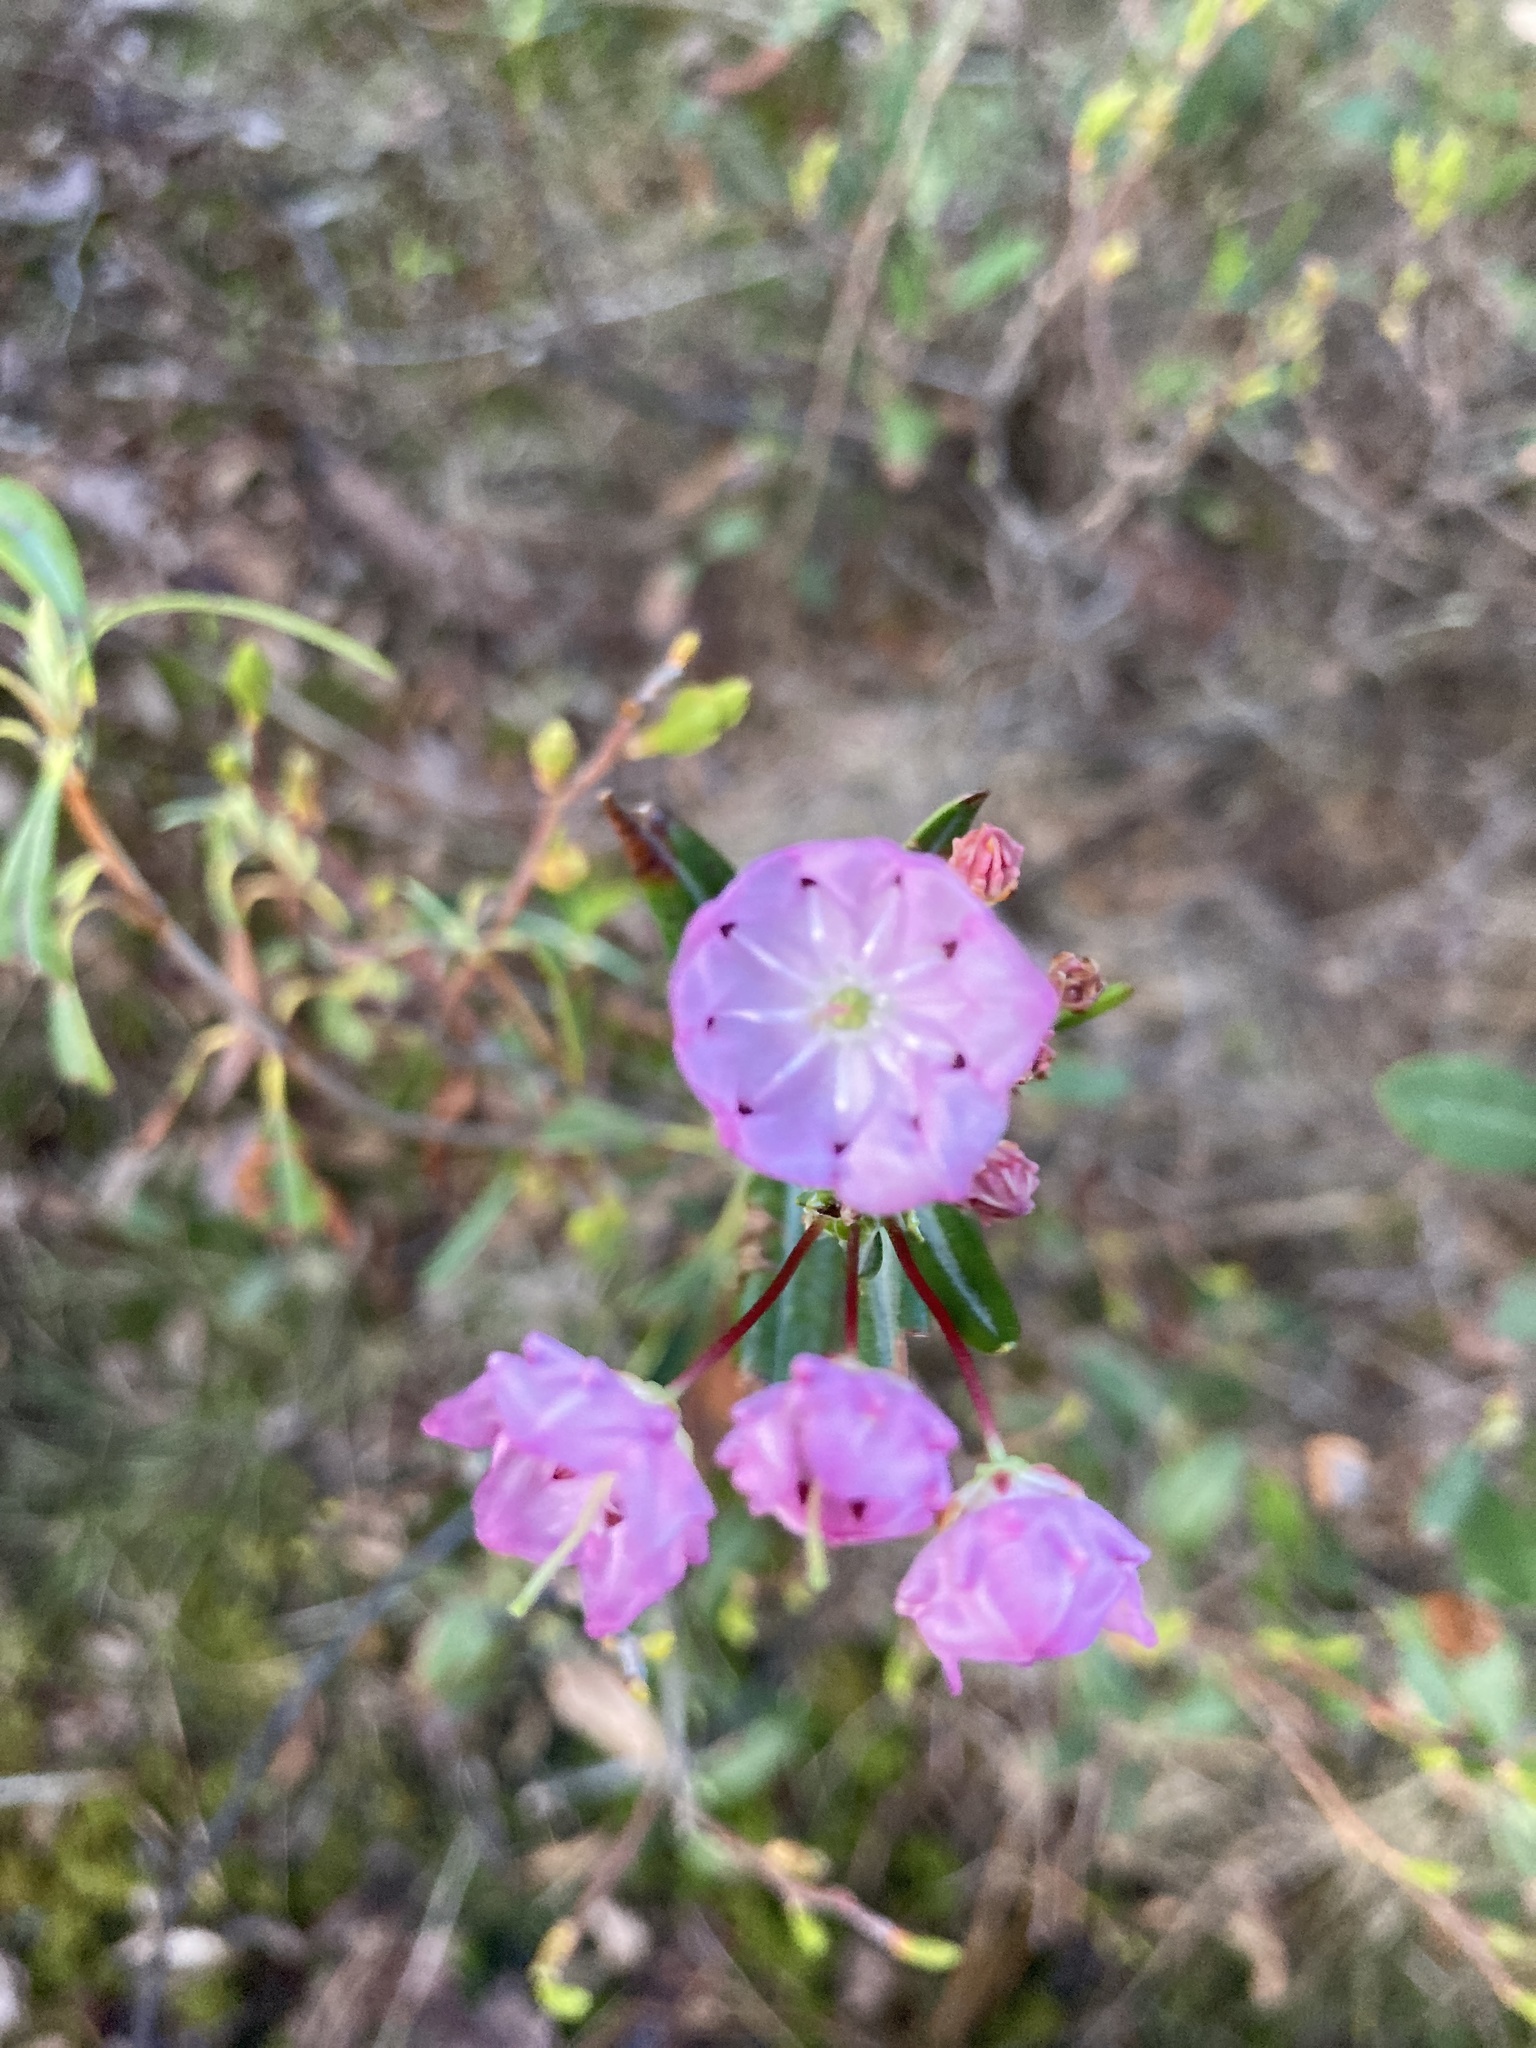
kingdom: Plantae
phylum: Tracheophyta
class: Magnoliopsida
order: Ericales
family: Ericaceae
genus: Kalmia
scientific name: Kalmia angustifolia
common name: Sheep-laurel
